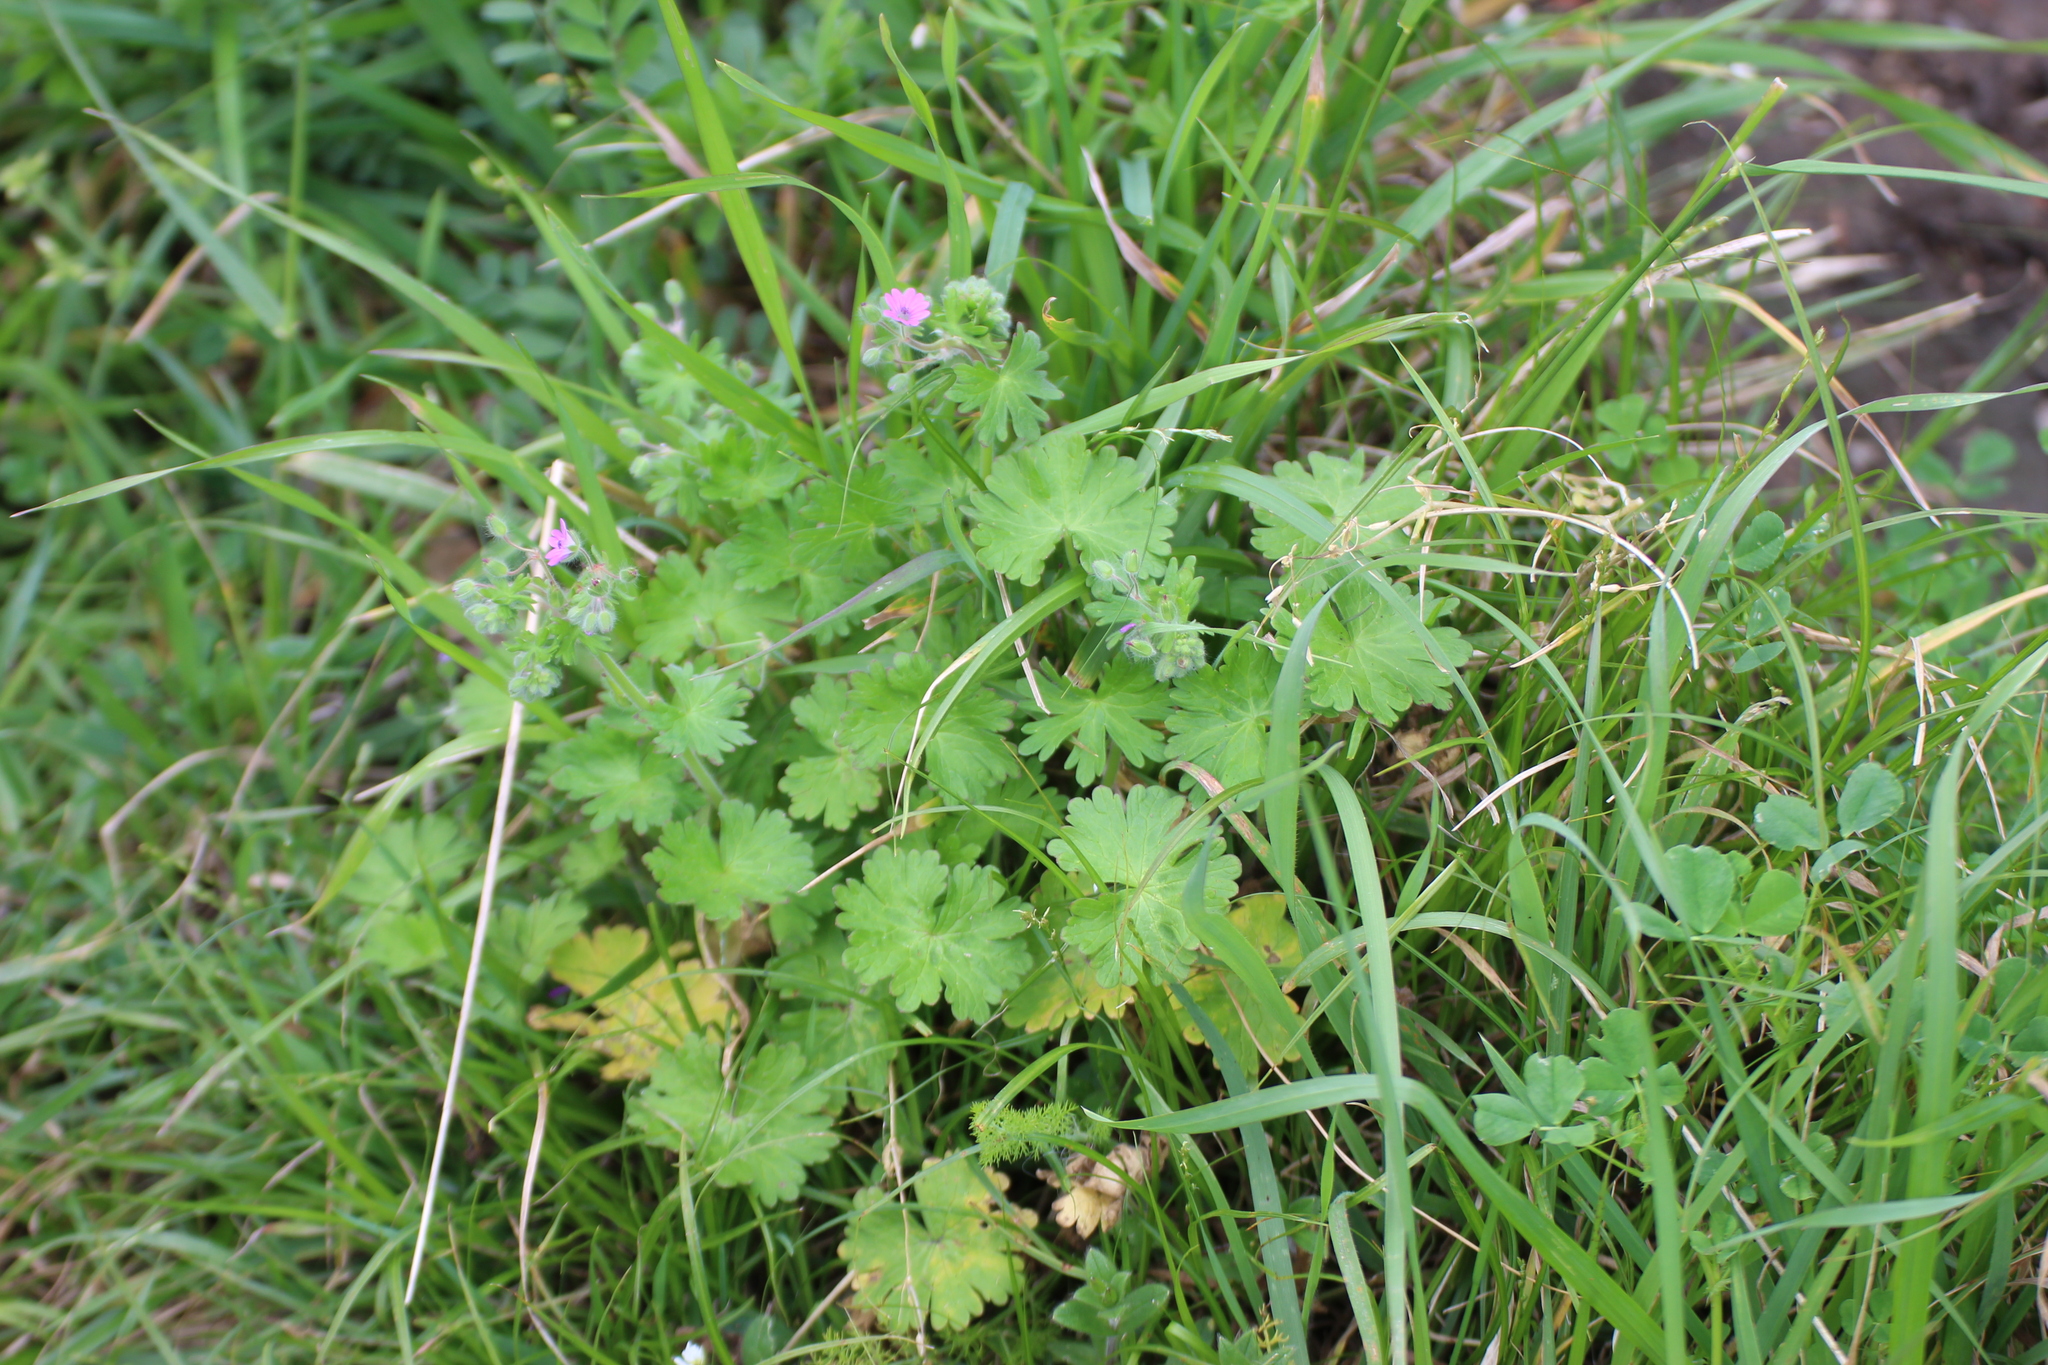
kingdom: Plantae
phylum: Tracheophyta
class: Magnoliopsida
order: Geraniales
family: Geraniaceae
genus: Geranium
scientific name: Geranium molle
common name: Dove's-foot crane's-bill
